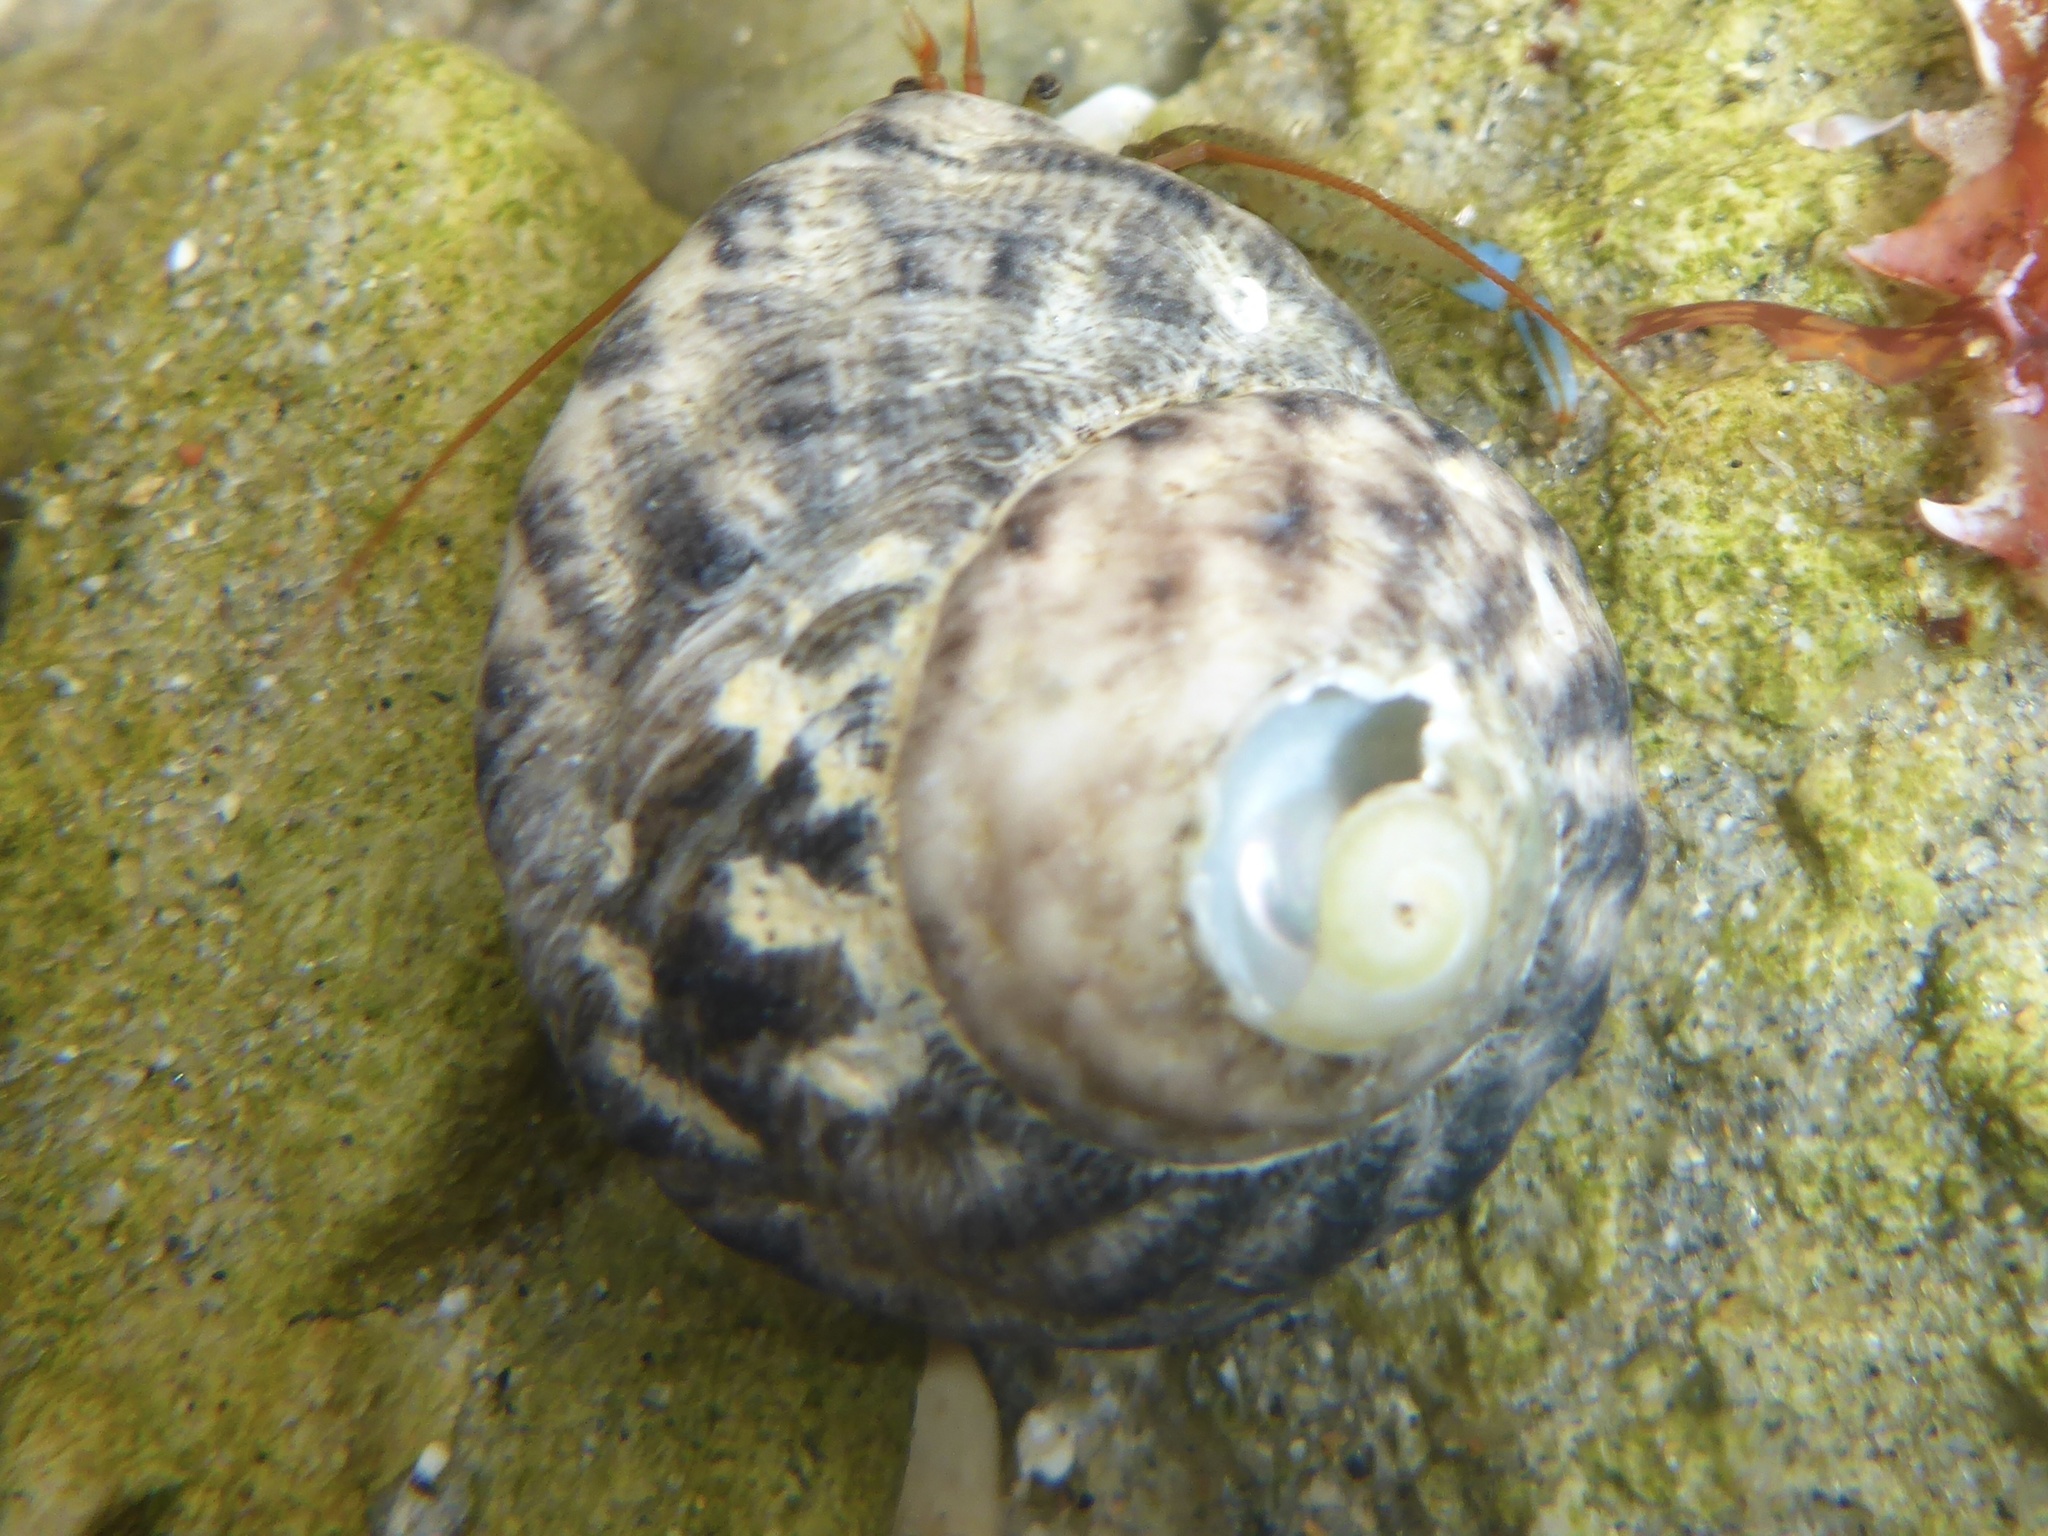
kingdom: Animalia
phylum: Mollusca
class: Gastropoda
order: Trochida
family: Tegulidae
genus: Tegula
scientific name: Tegula eiseni
